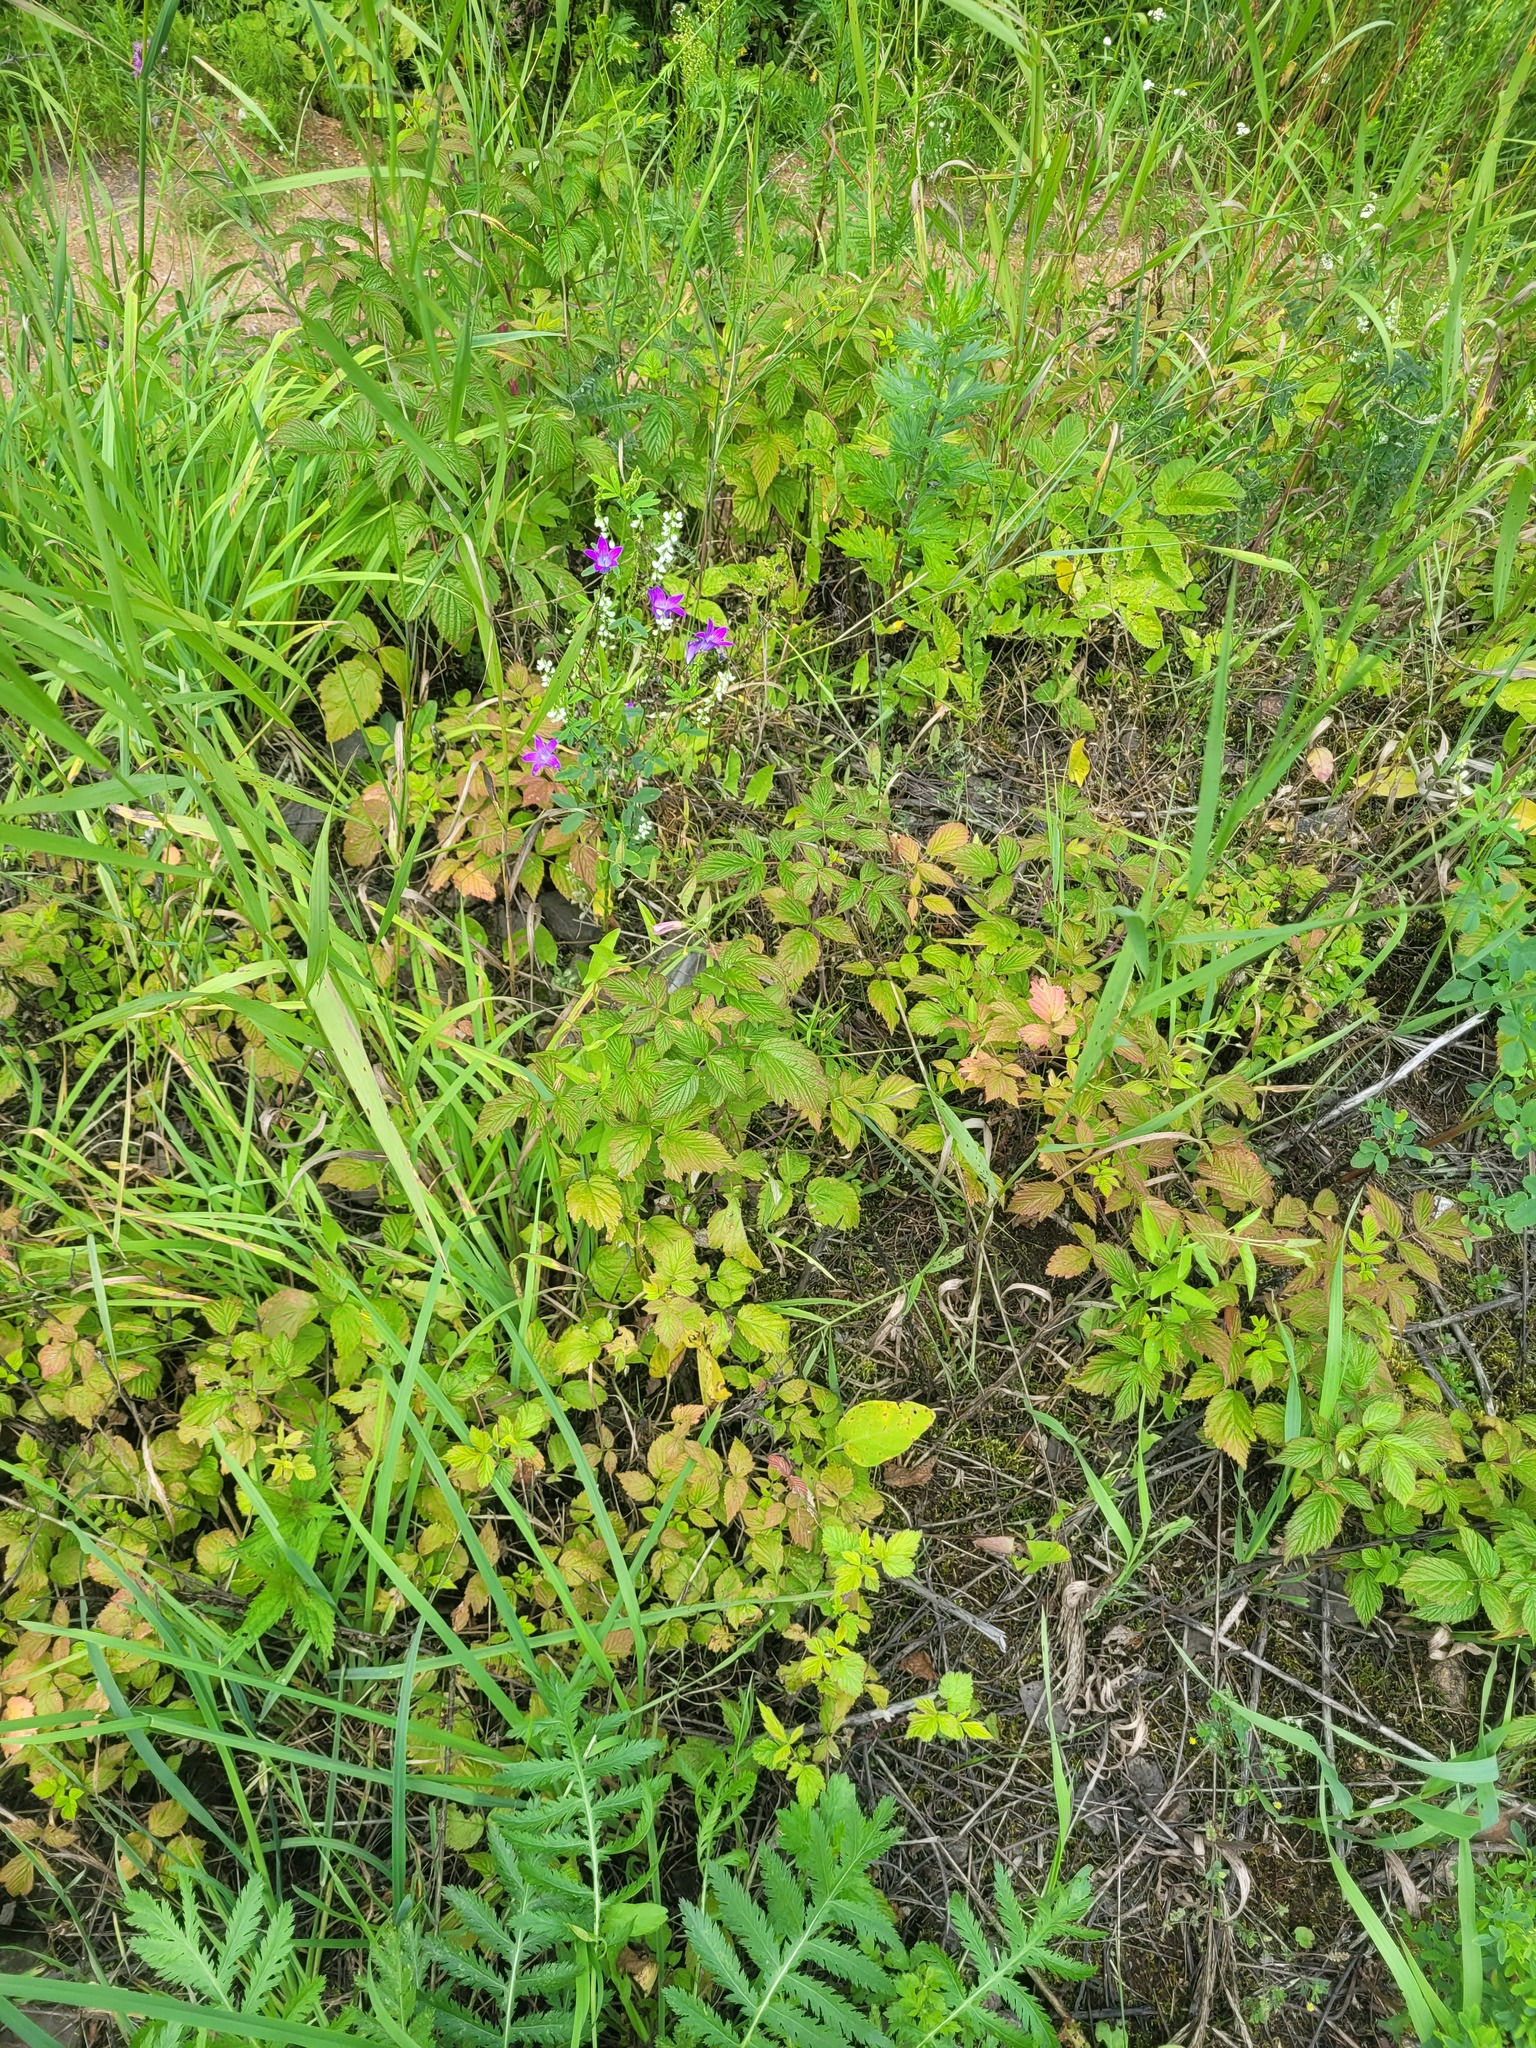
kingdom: Plantae
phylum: Tracheophyta
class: Magnoliopsida
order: Rosales
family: Rosaceae
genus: Rubus
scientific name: Rubus idaeus
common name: Raspberry
